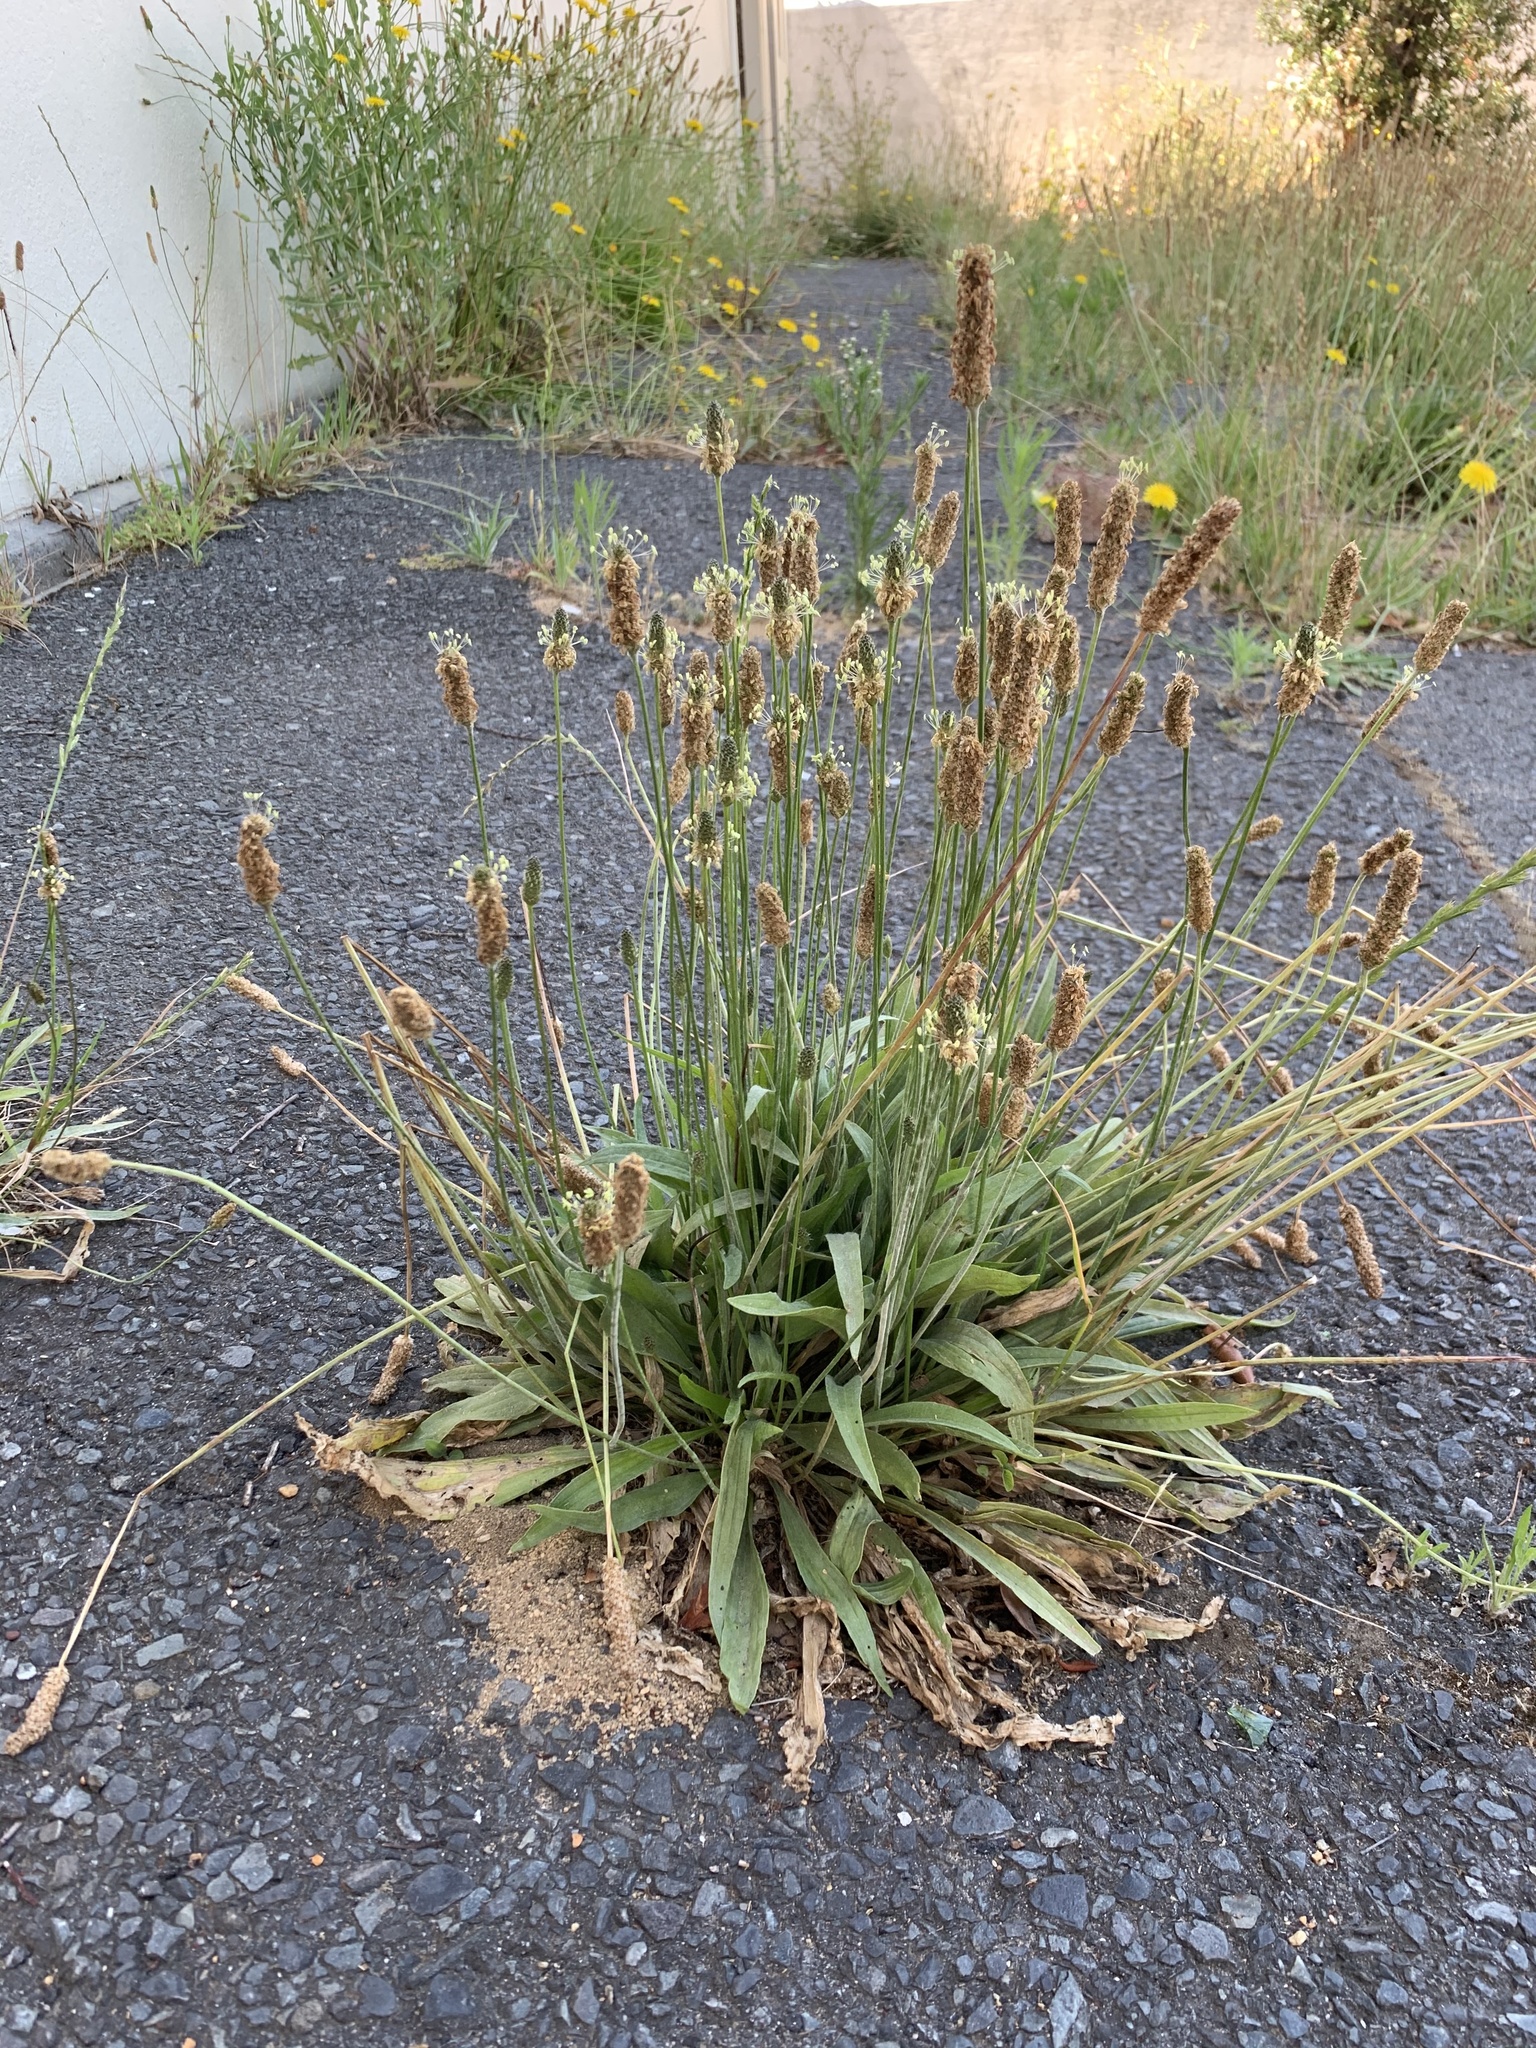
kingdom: Plantae
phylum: Tracheophyta
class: Magnoliopsida
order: Lamiales
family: Plantaginaceae
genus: Plantago
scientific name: Plantago lanceolata
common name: Ribwort plantain
